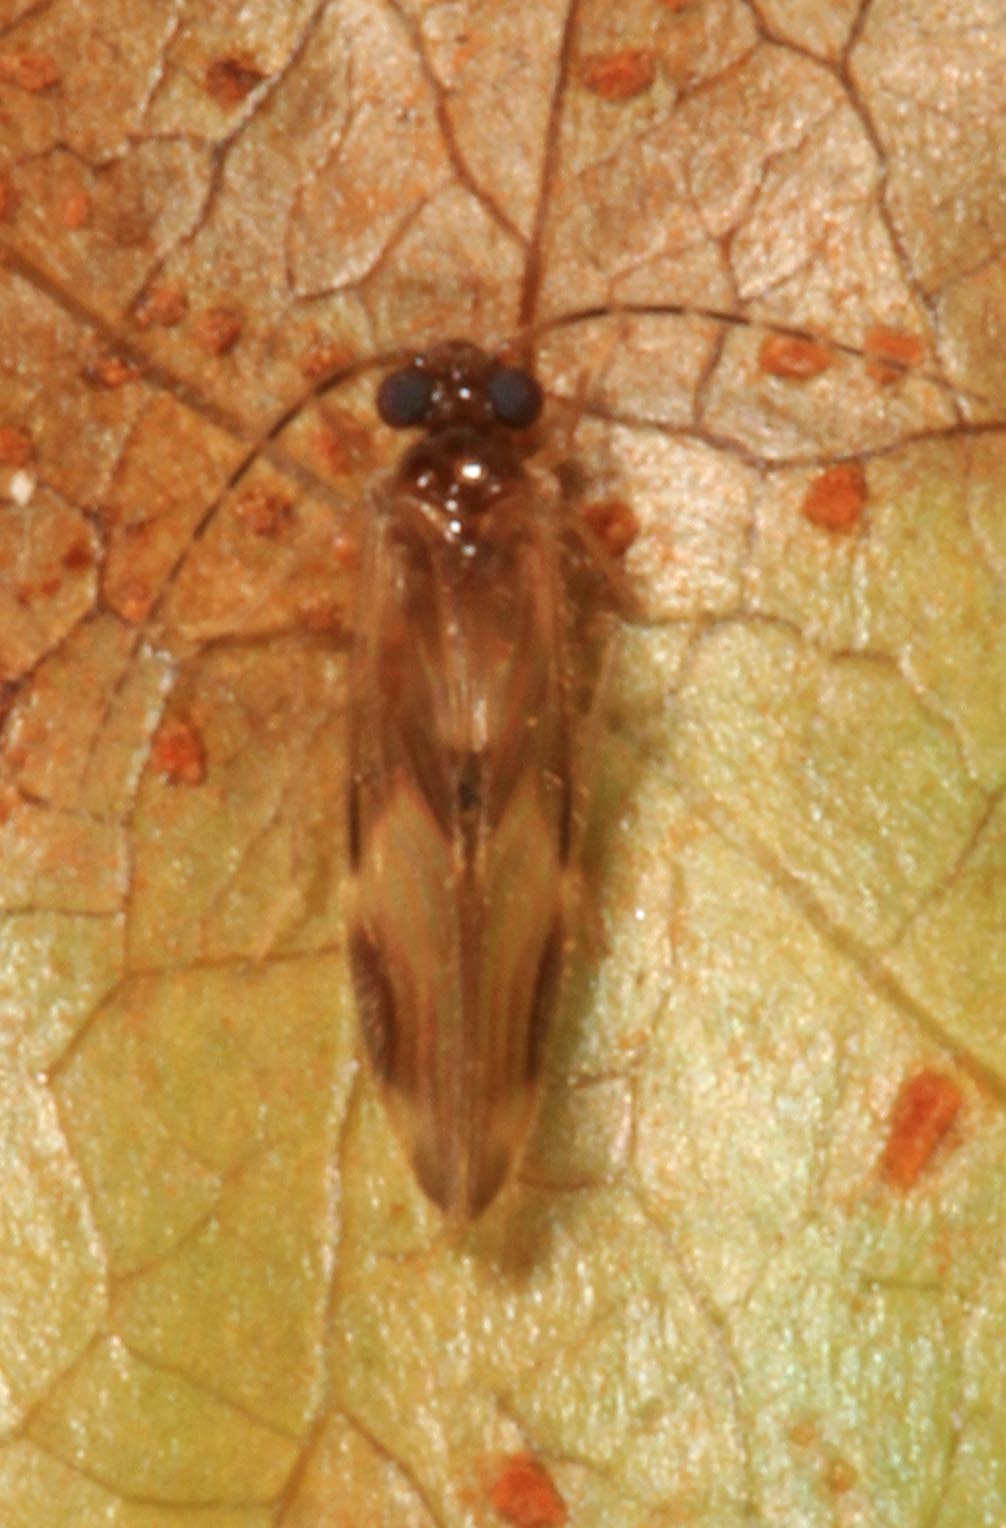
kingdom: Animalia
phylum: Arthropoda
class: Insecta
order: Psocodea
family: Amphipsocidae
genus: Polypsocus
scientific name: Polypsocus corruptus
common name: Corrupt barklouse
